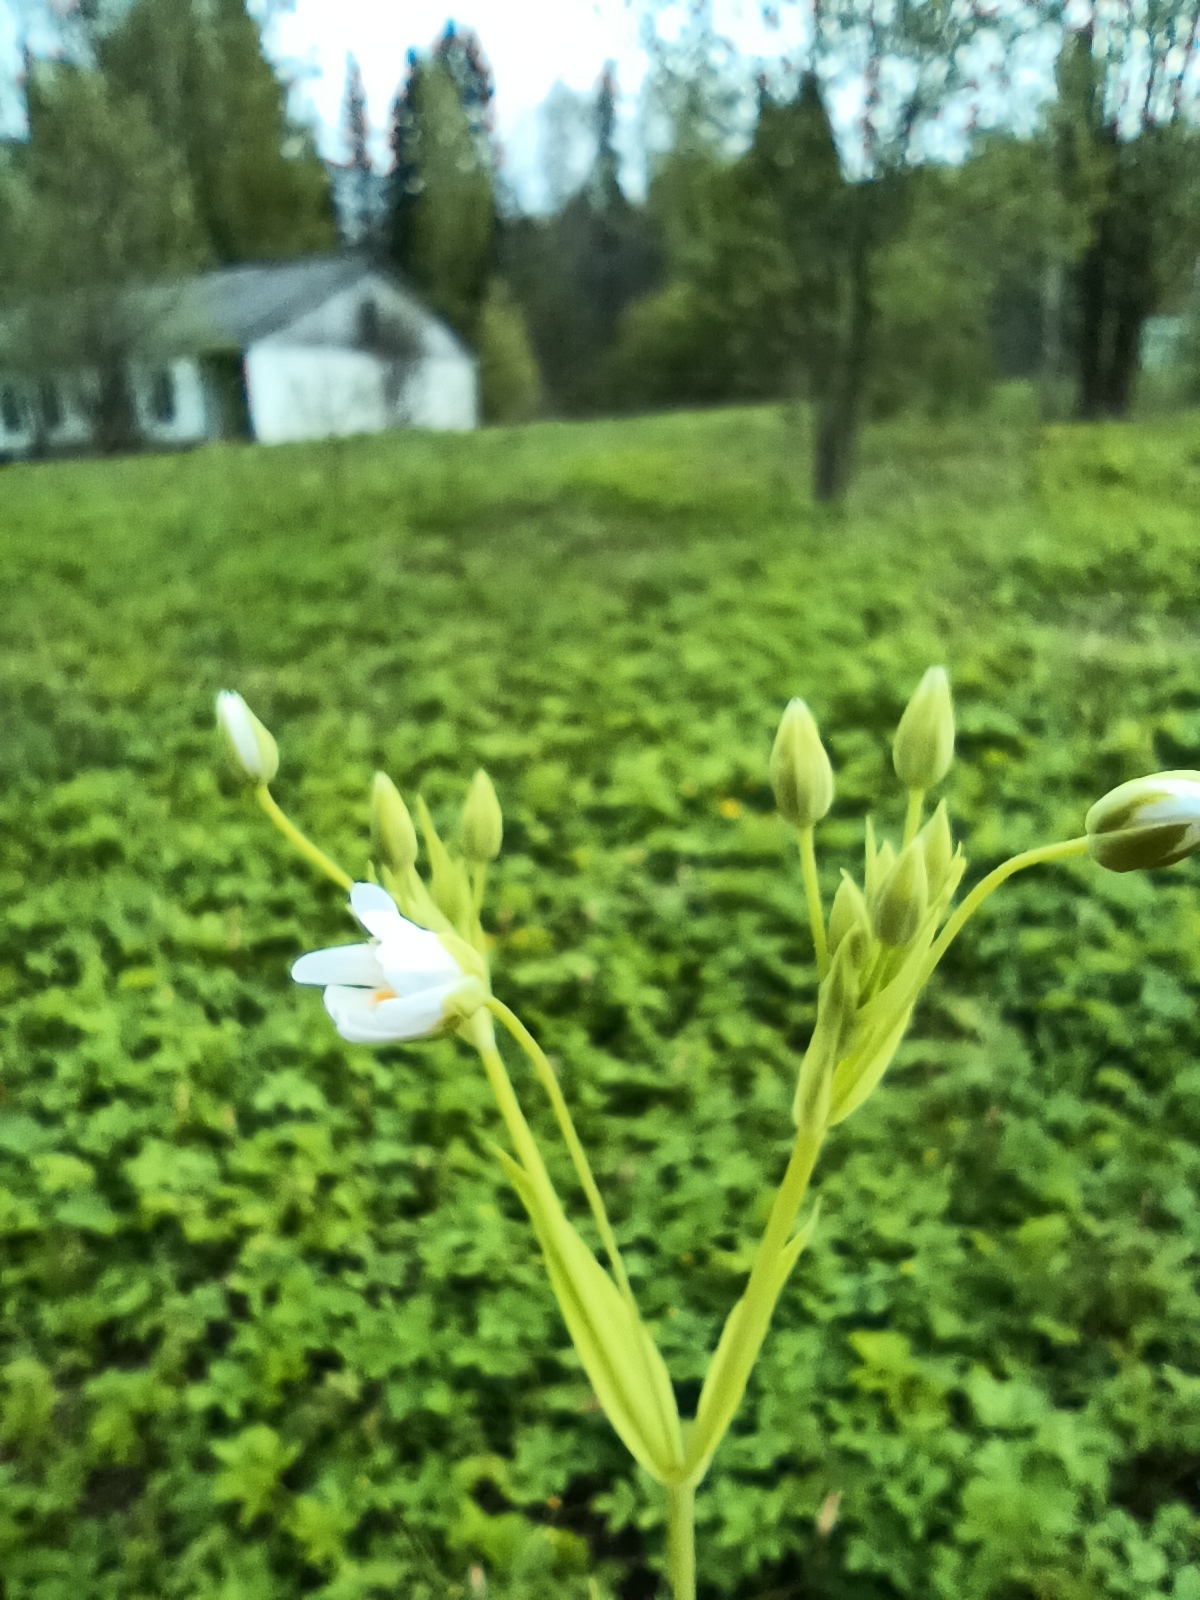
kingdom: Plantae
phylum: Tracheophyta
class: Magnoliopsida
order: Caryophyllales
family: Caryophyllaceae
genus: Rabelera
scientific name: Rabelera holostea
